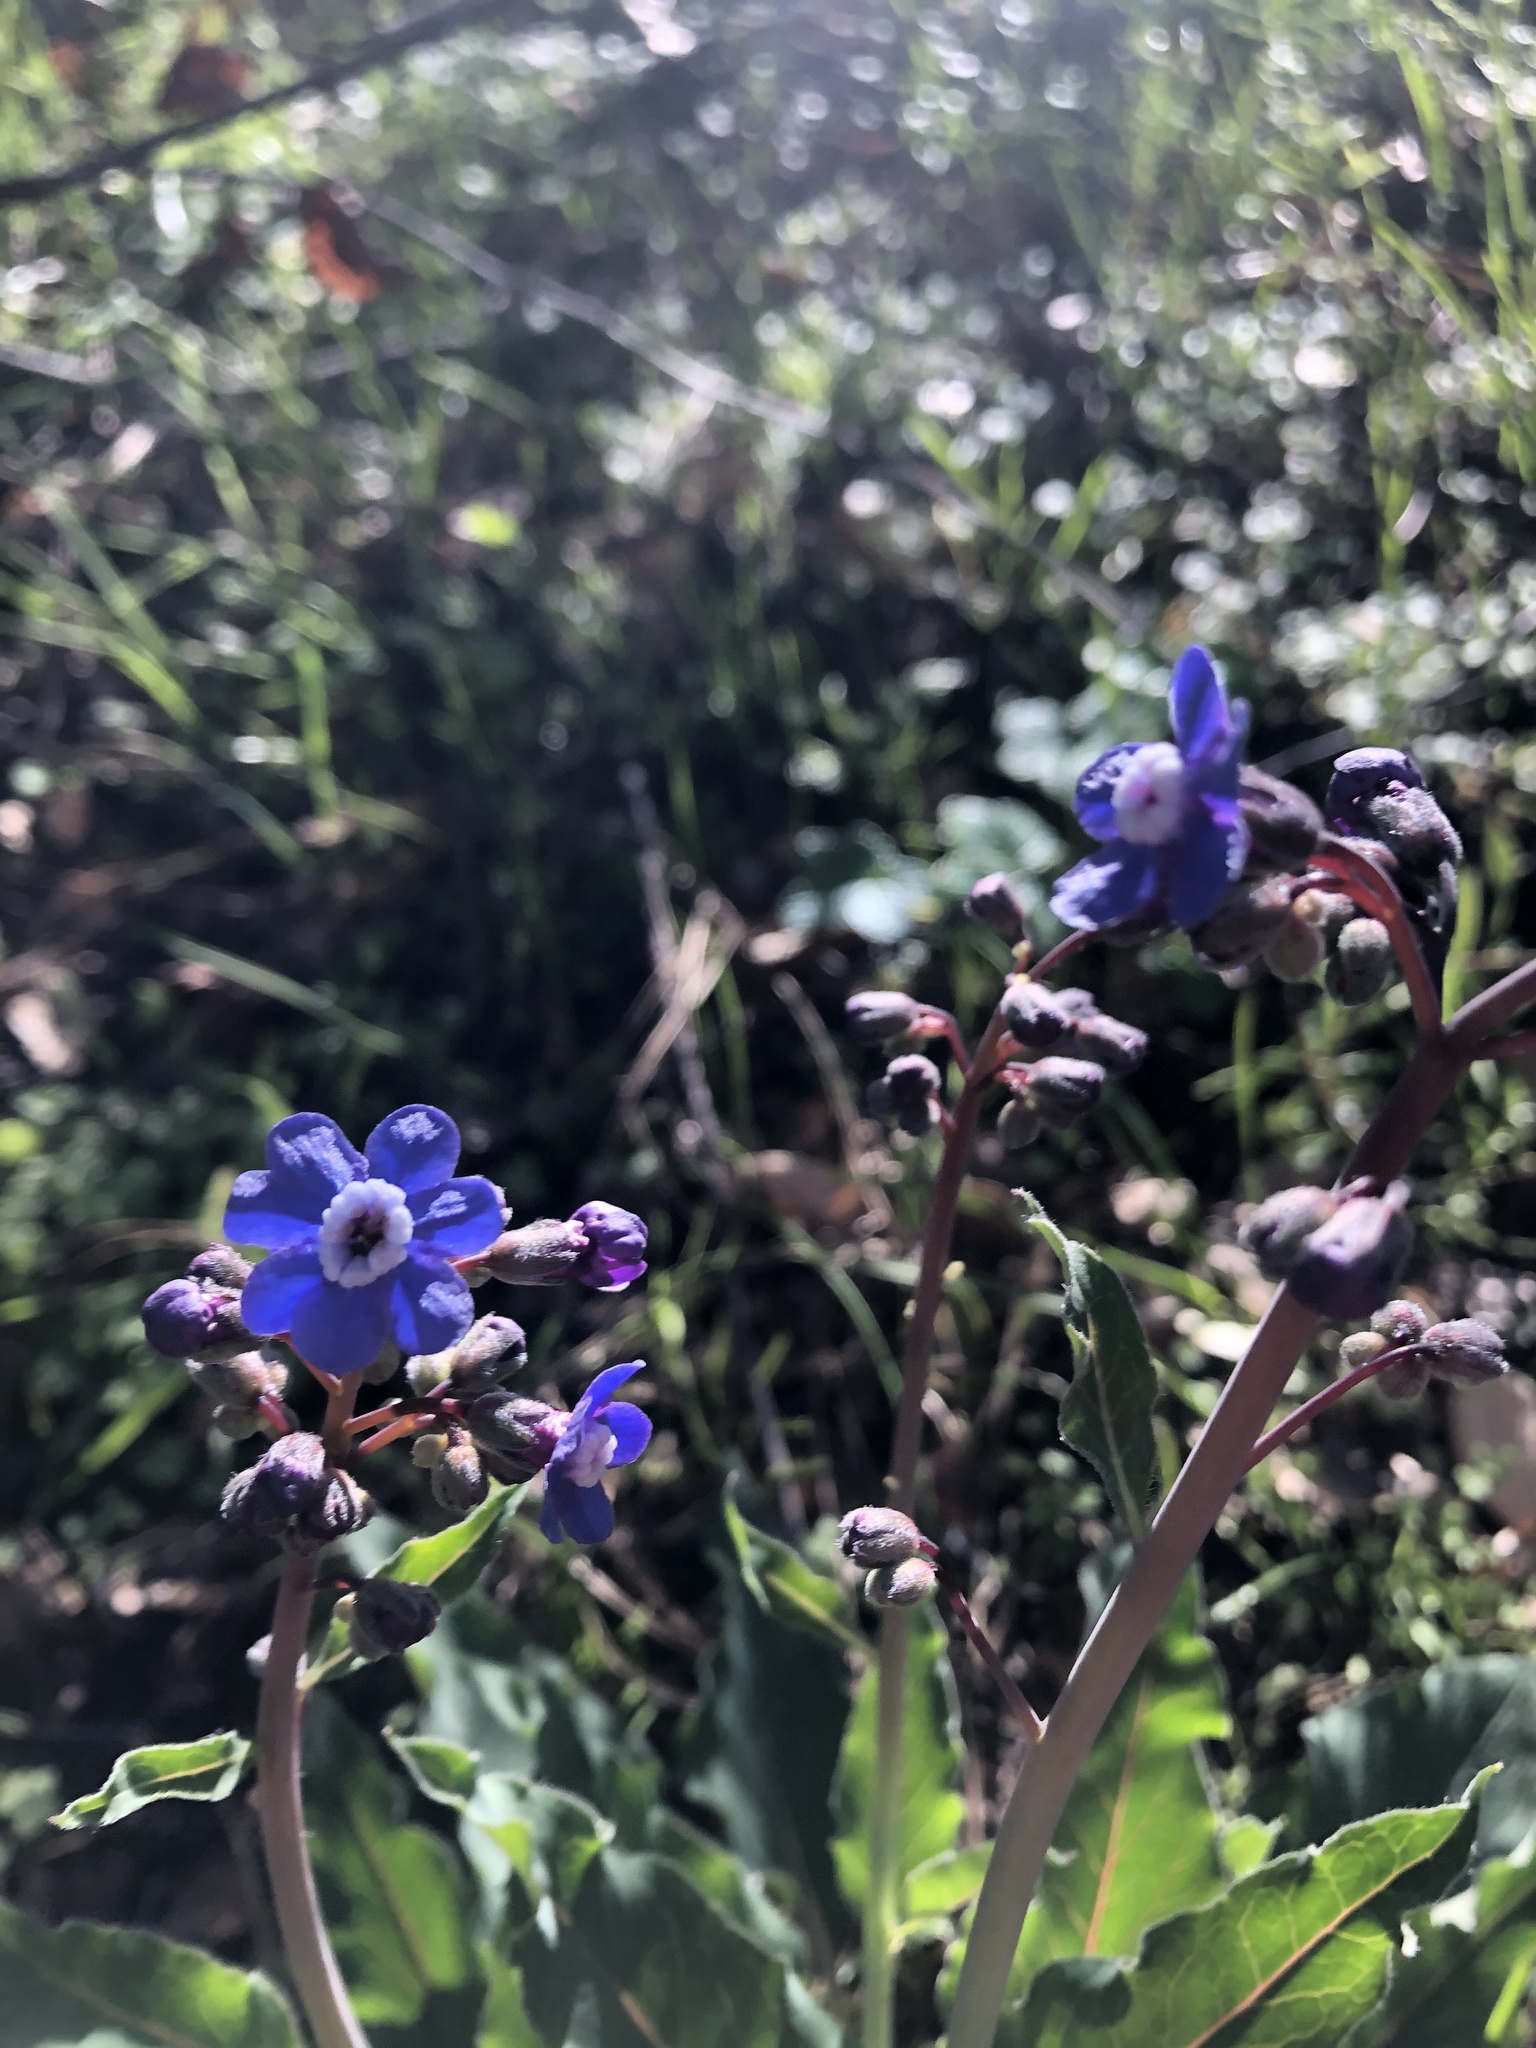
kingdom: Plantae
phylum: Tracheophyta
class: Magnoliopsida
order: Boraginales
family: Boraginaceae
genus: Adelinia
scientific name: Adelinia grande
